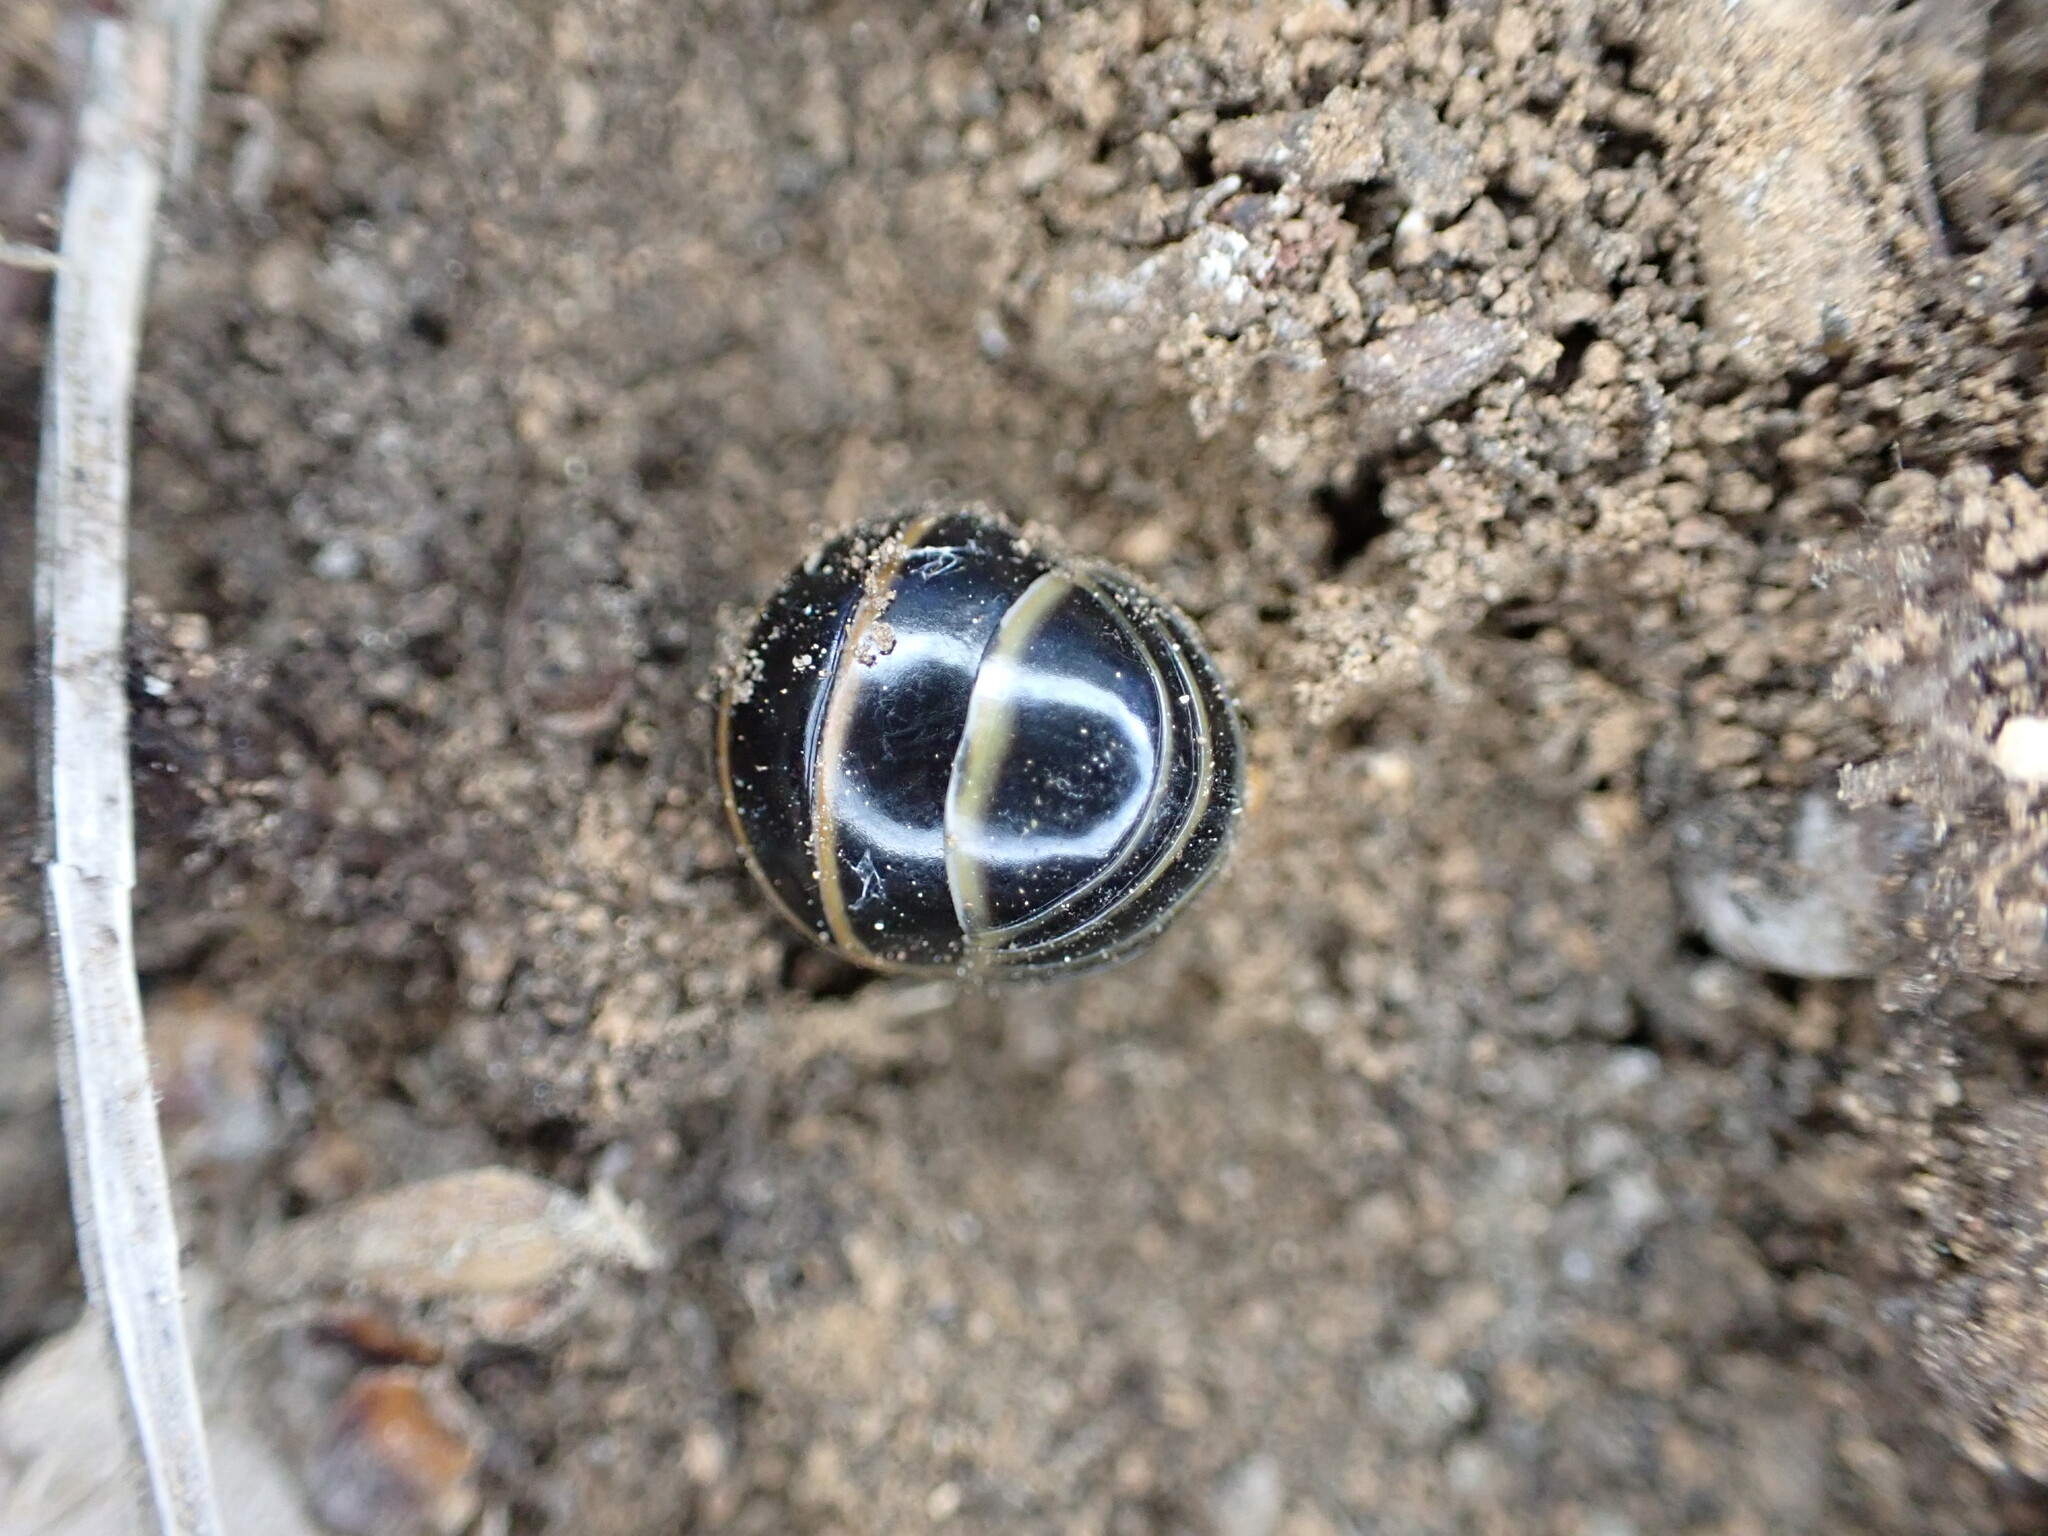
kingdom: Animalia
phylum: Arthropoda
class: Diplopoda
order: Glomerida
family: Glomeridae
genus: Glomeris
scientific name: Glomeris marginata
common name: Bordered pill millipede
